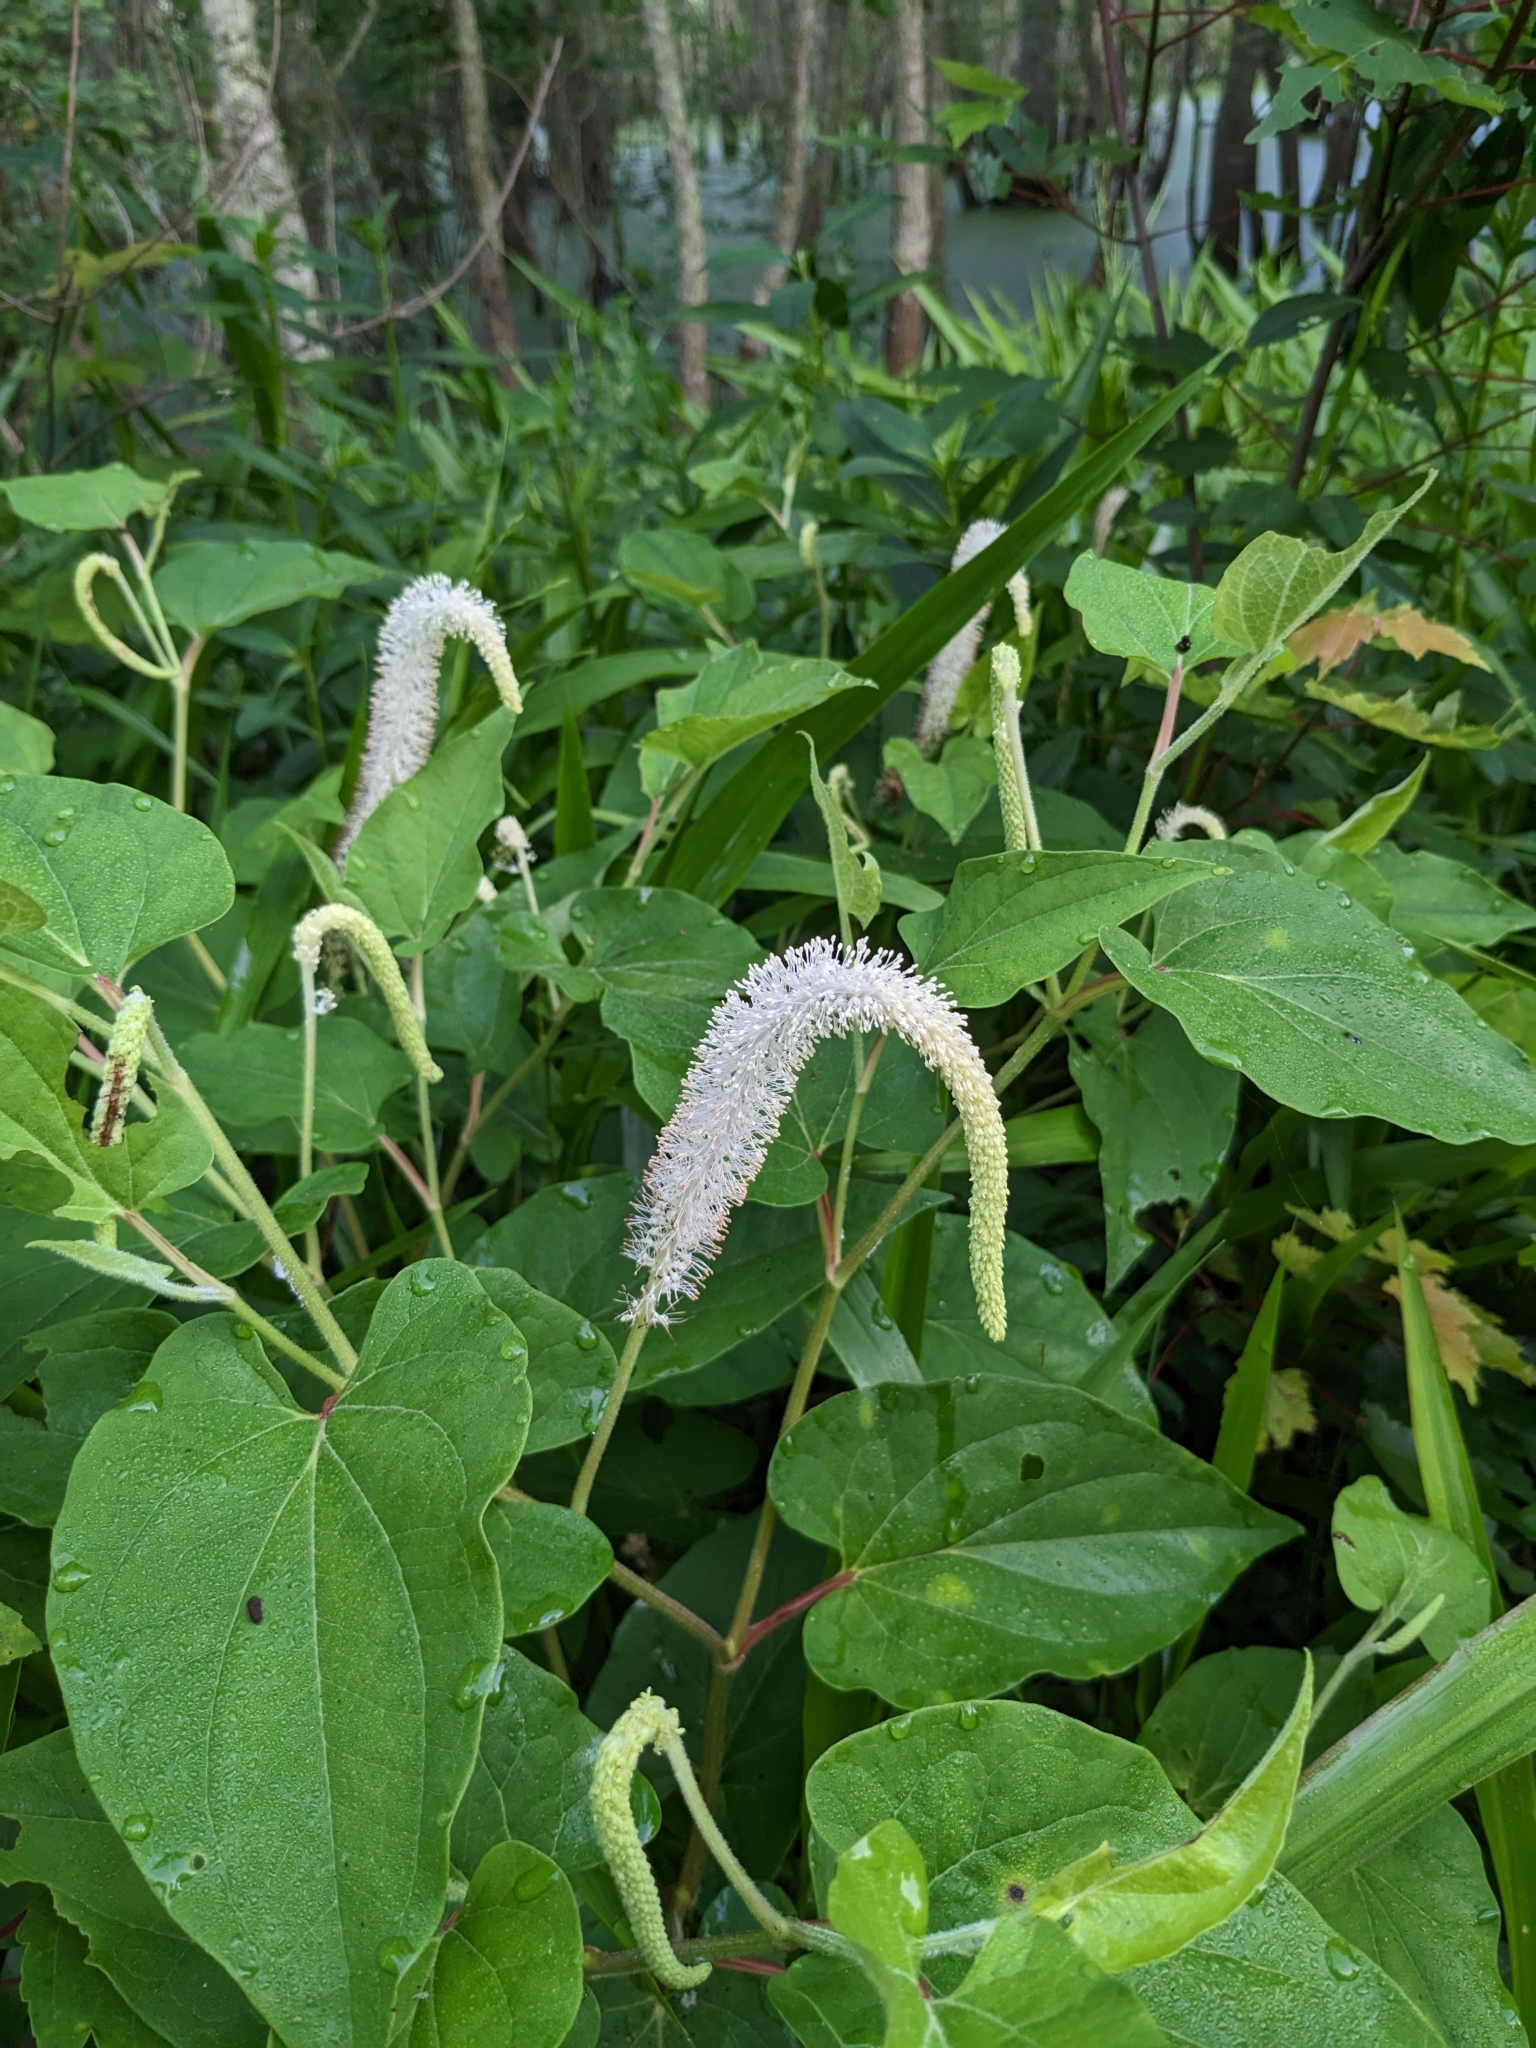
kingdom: Plantae
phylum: Tracheophyta
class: Magnoliopsida
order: Piperales
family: Saururaceae
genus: Saururus
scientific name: Saururus cernuus
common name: Lizard's-tail
